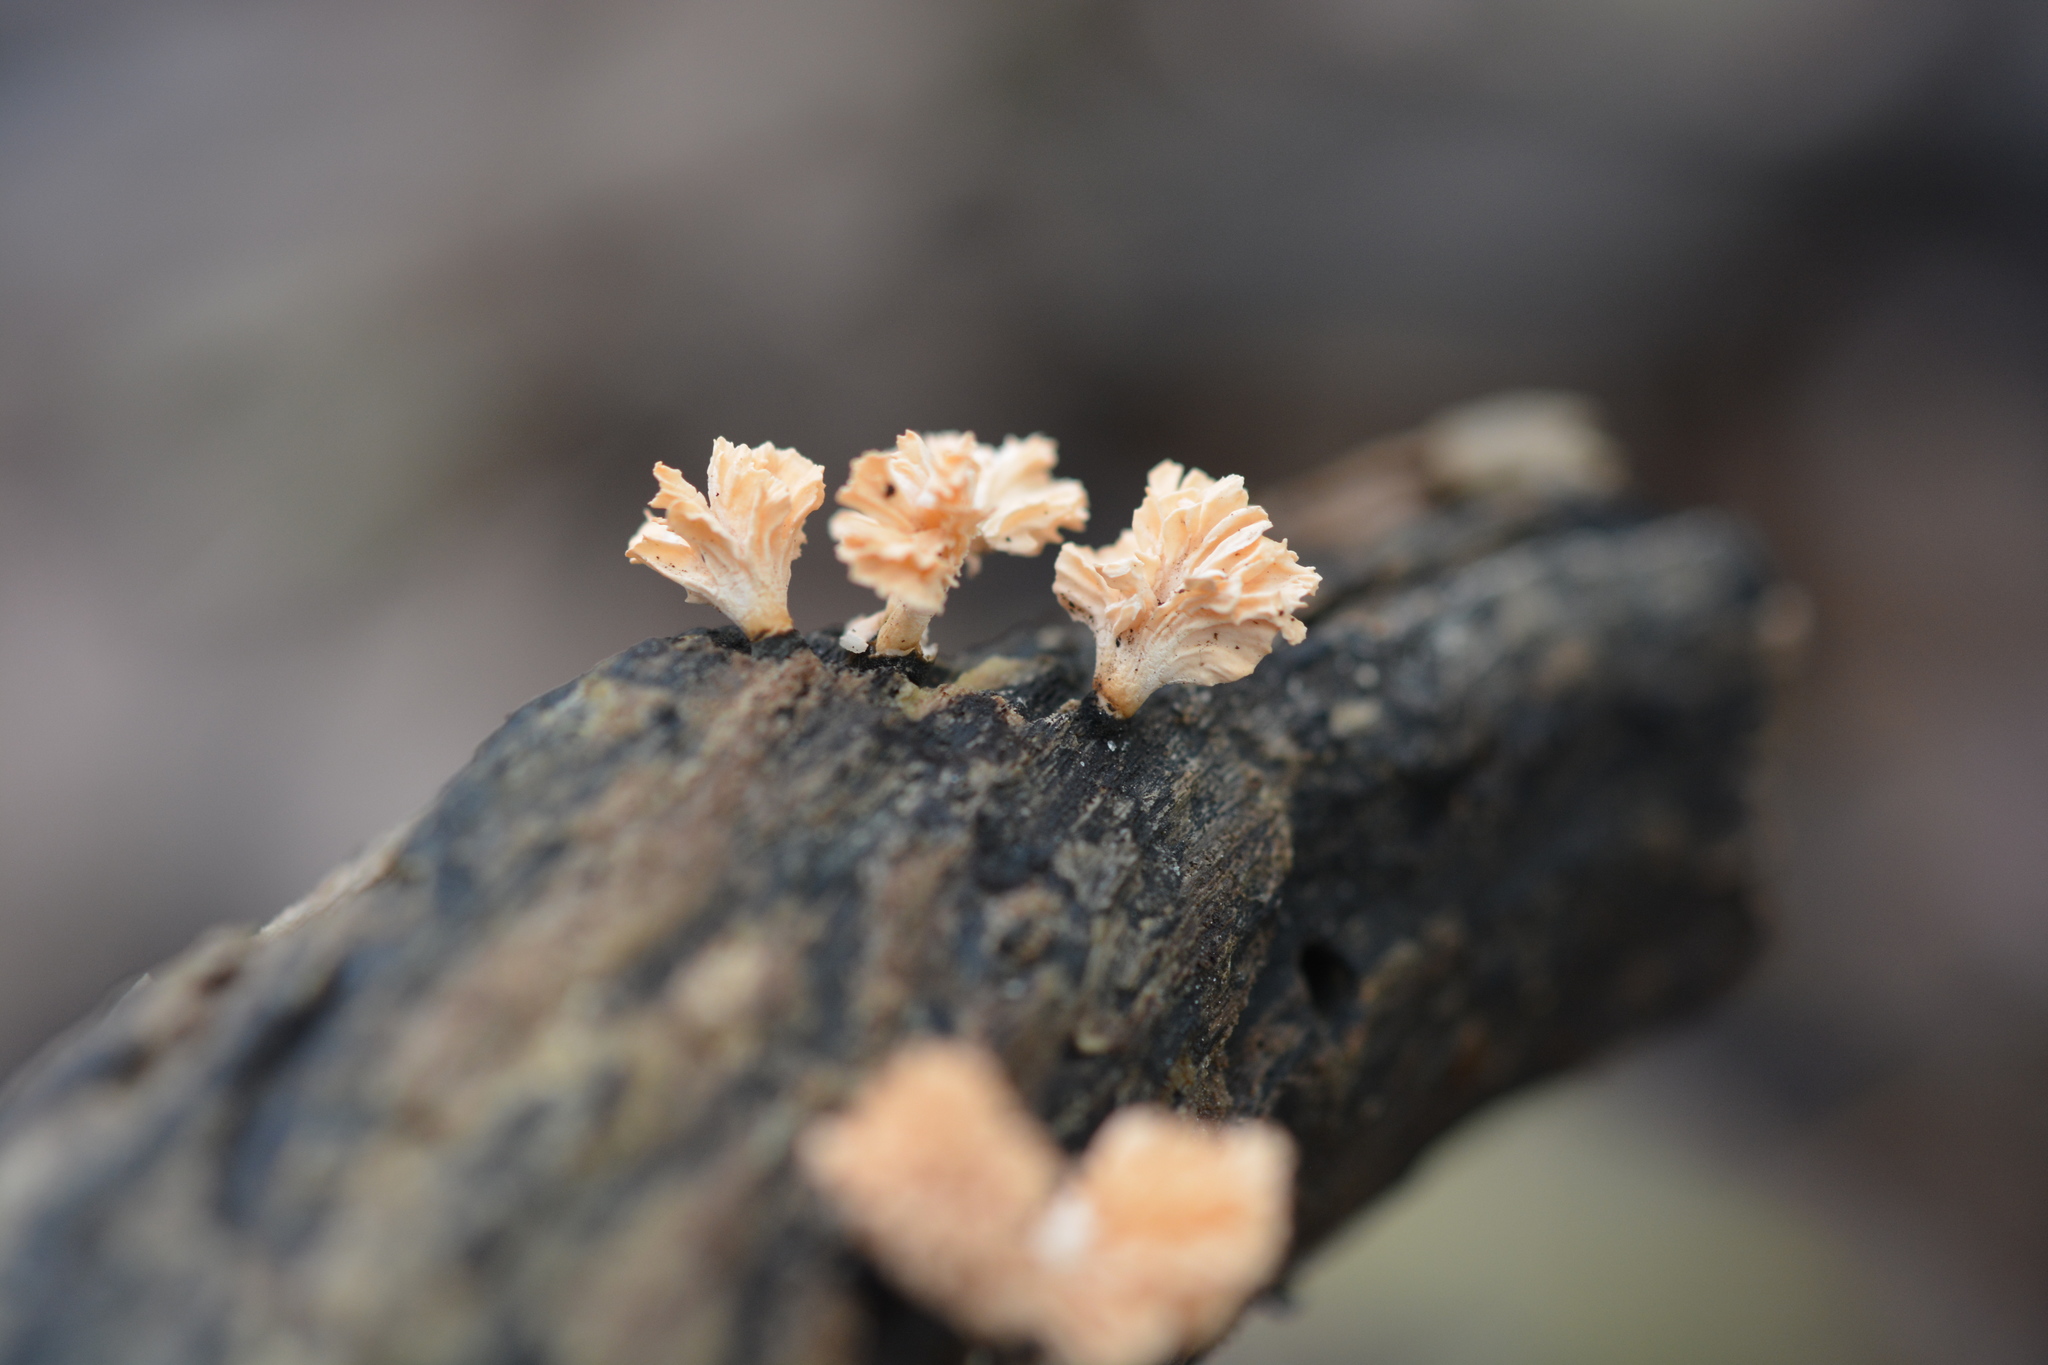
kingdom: Fungi
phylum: Ascomycota
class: Sordariomycetes
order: Xylariales
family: Xylariaceae
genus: Xylaria
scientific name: Xylaria cubensis
